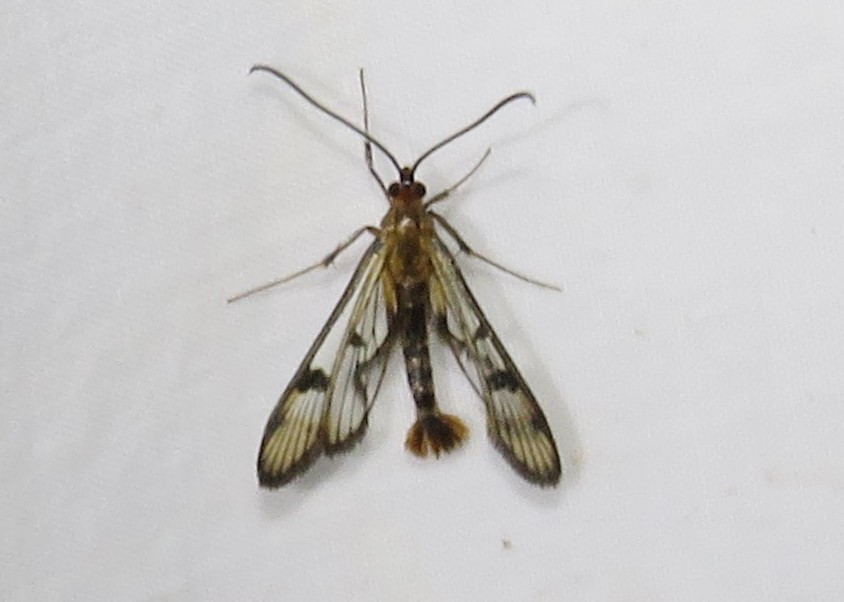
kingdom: Animalia
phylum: Arthropoda
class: Insecta
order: Lepidoptera
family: Sesiidae
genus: Synanthedon
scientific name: Synanthedon acerni
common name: Maple callus borer moth
